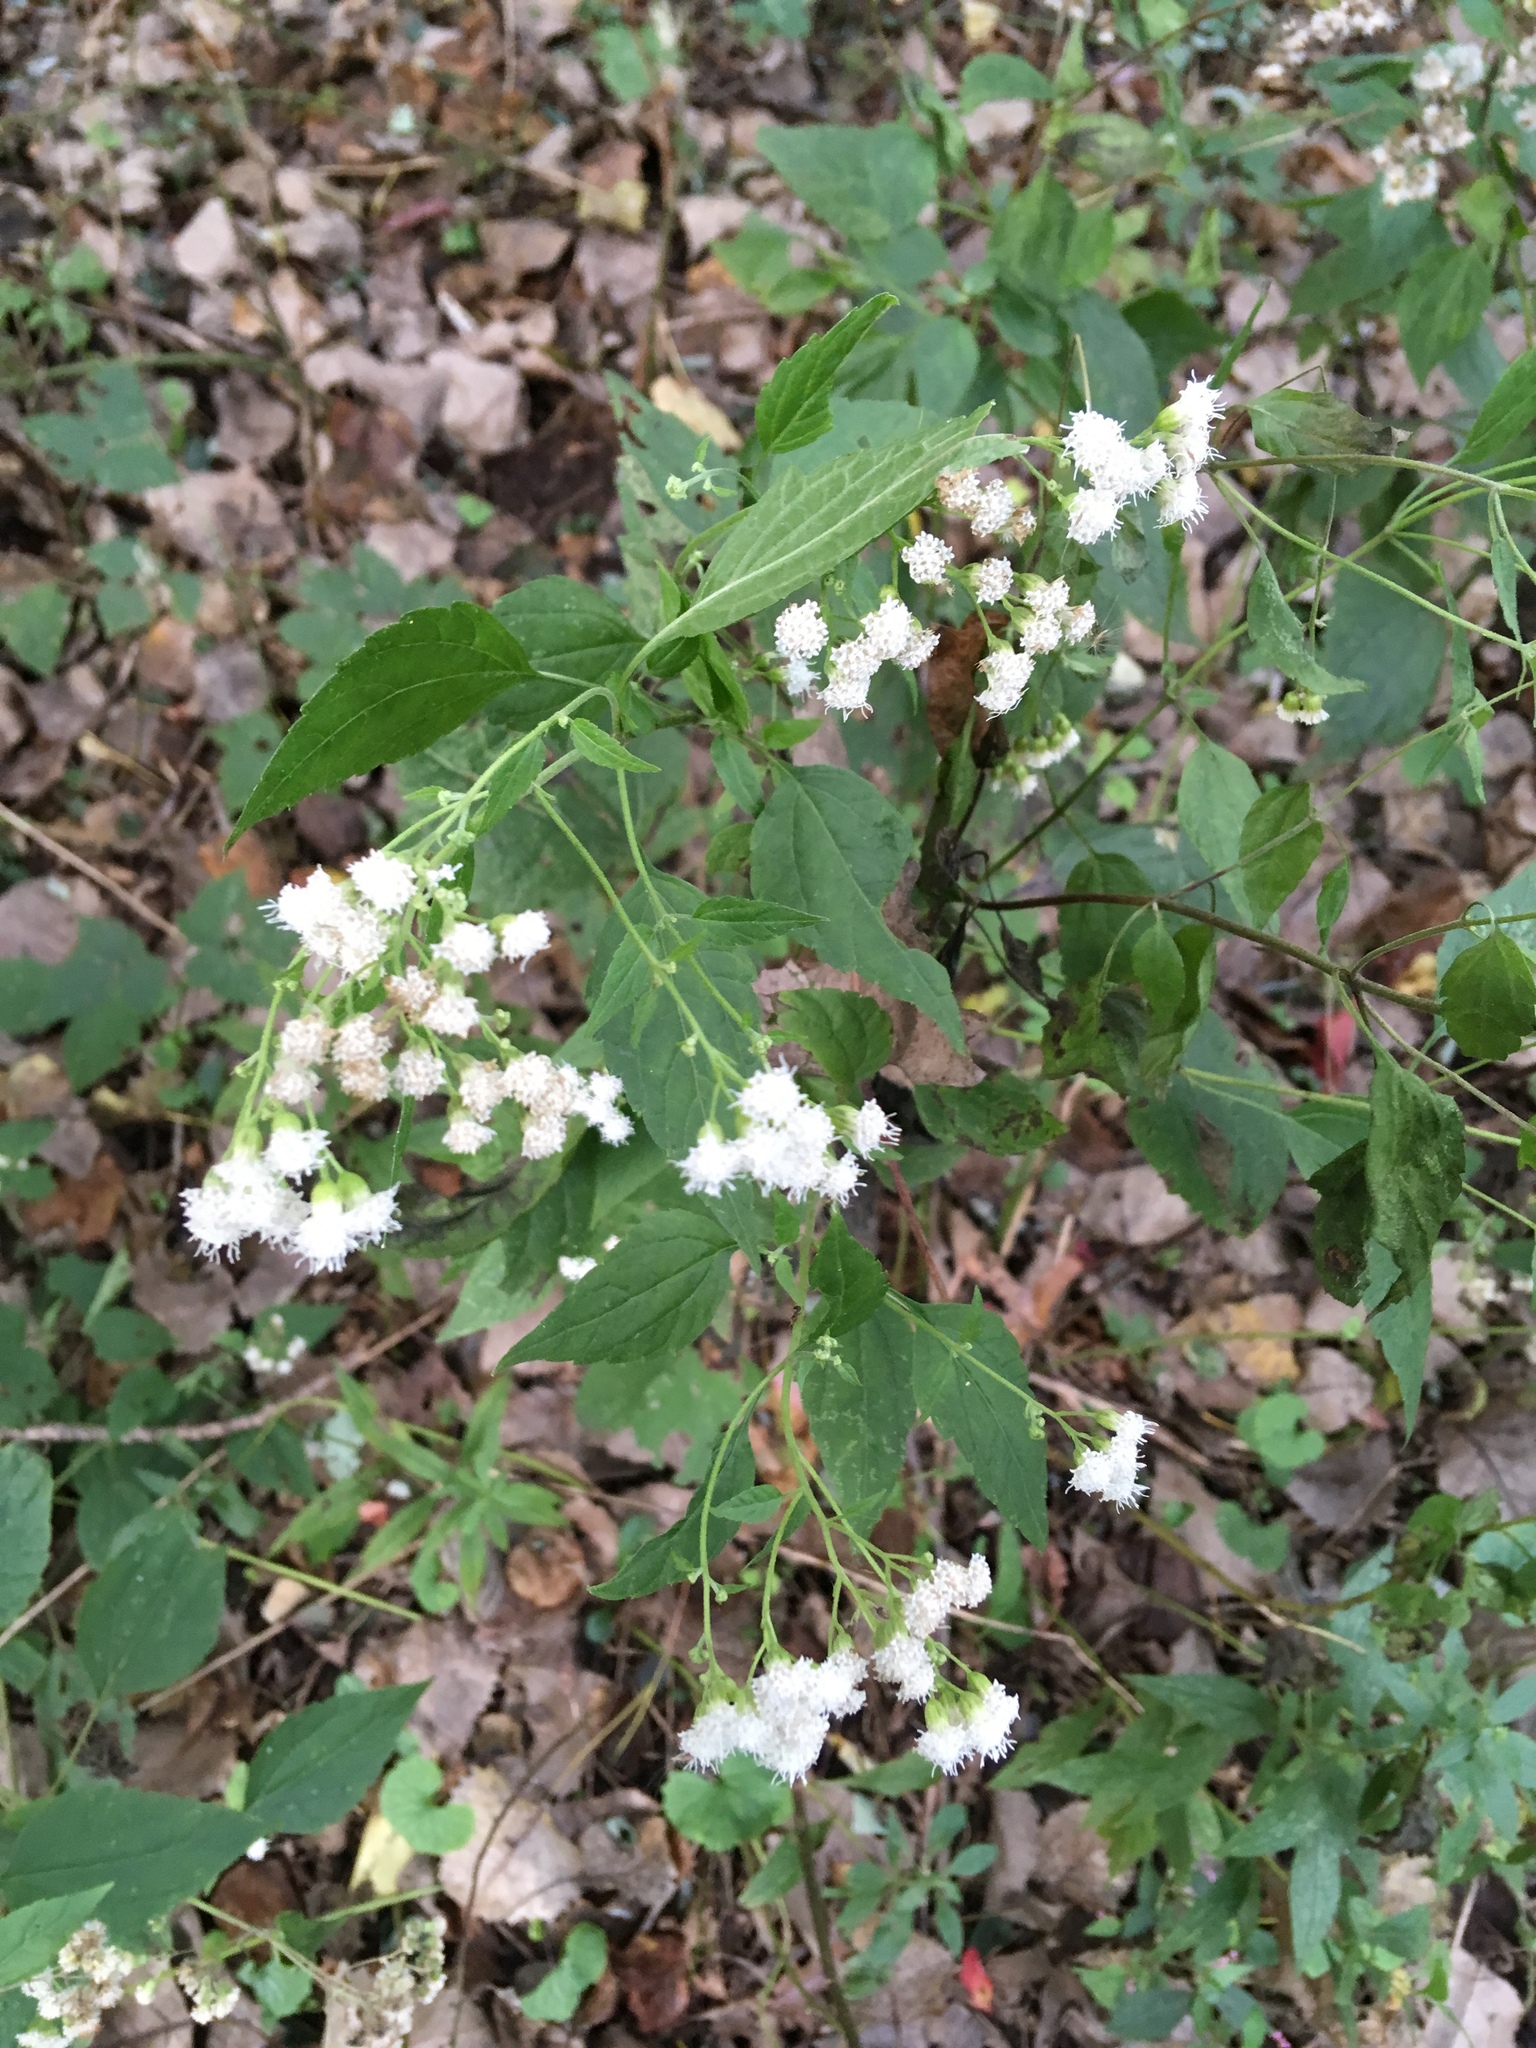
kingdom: Plantae
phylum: Tracheophyta
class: Magnoliopsida
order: Asterales
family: Asteraceae
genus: Ageratina
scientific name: Ageratina altissima
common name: White snakeroot
